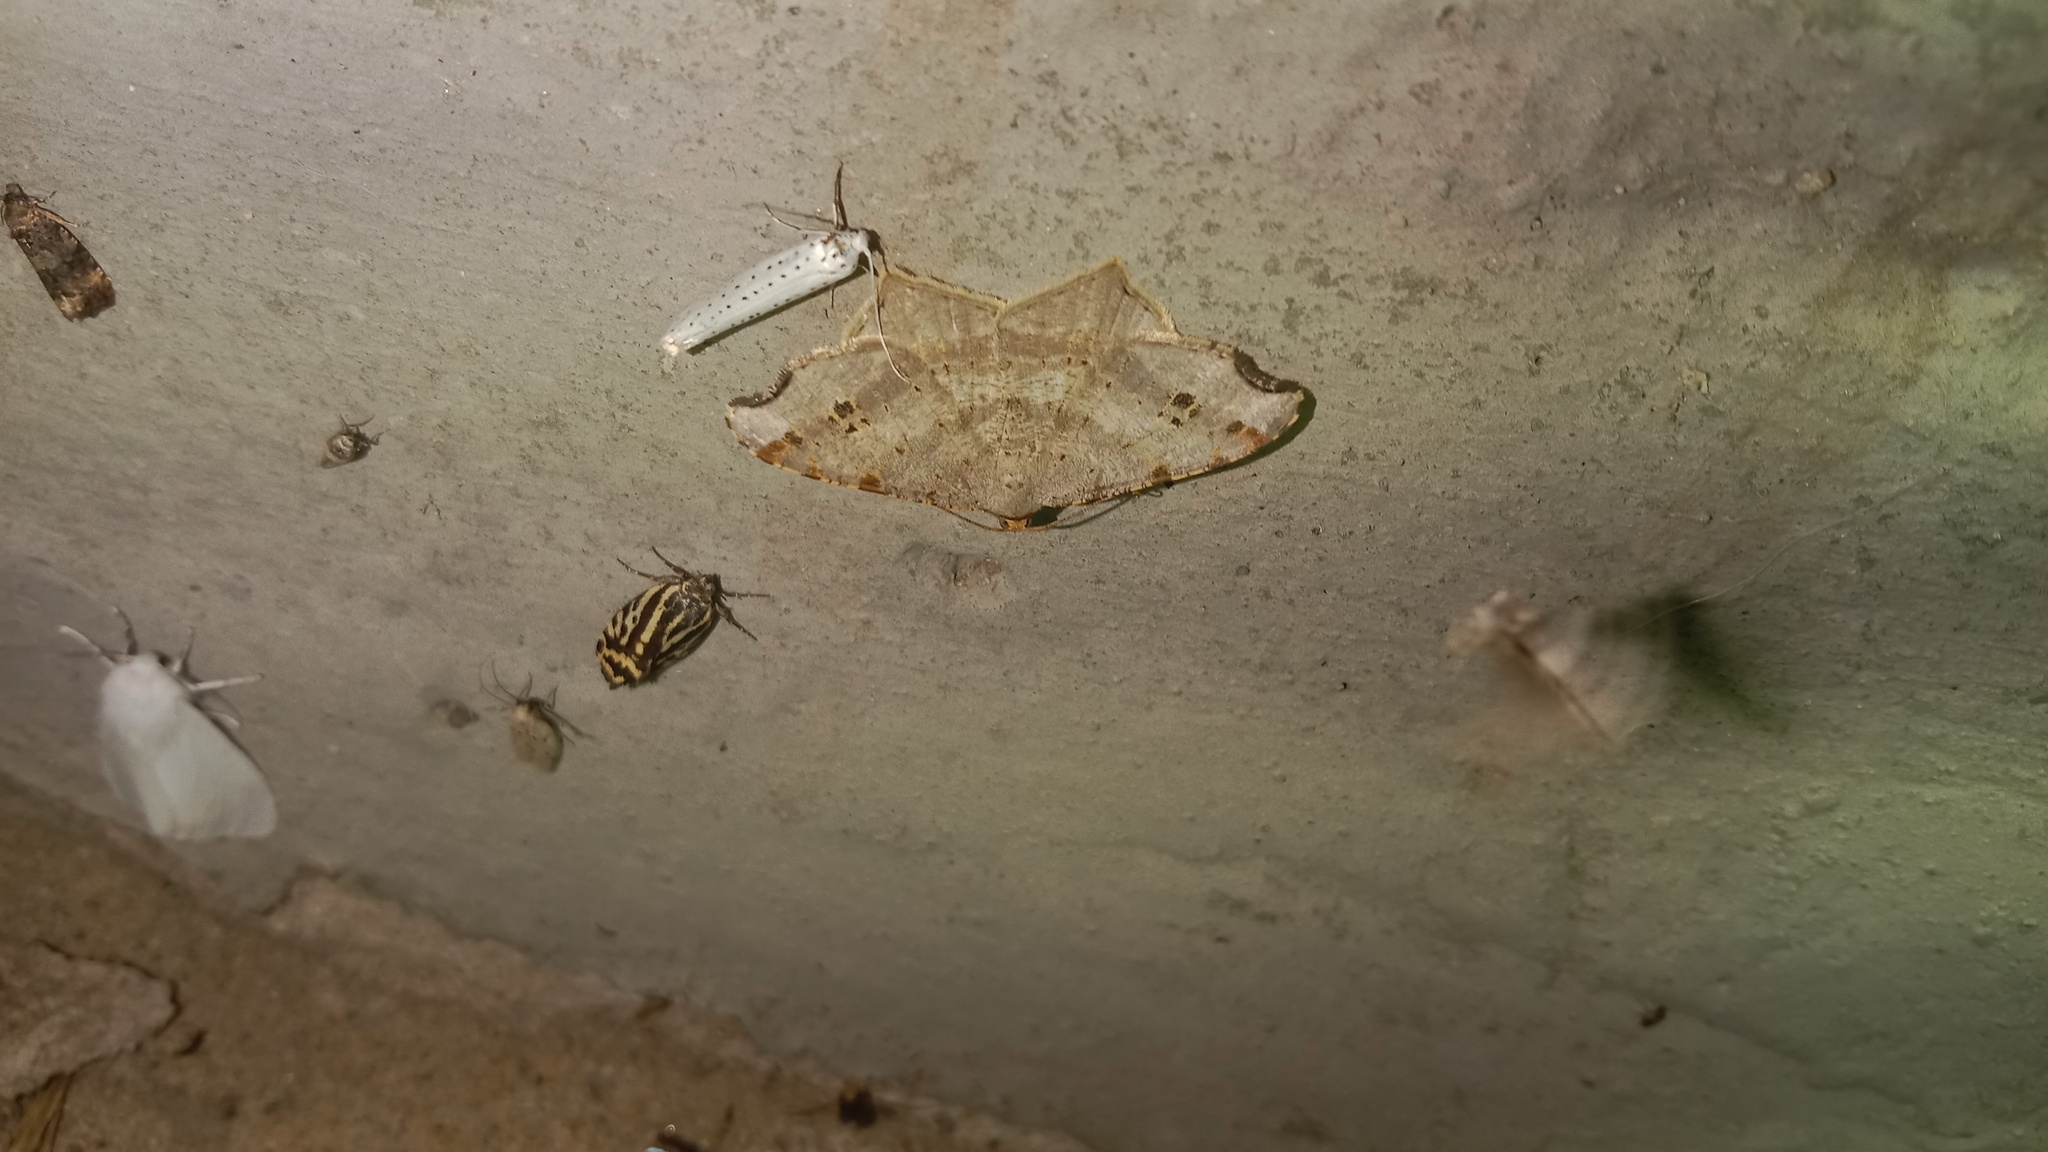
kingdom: Animalia
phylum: Arthropoda
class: Insecta
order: Lepidoptera
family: Geometridae
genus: Macaria
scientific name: Macaria alternata
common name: Sharp-angled peacock
